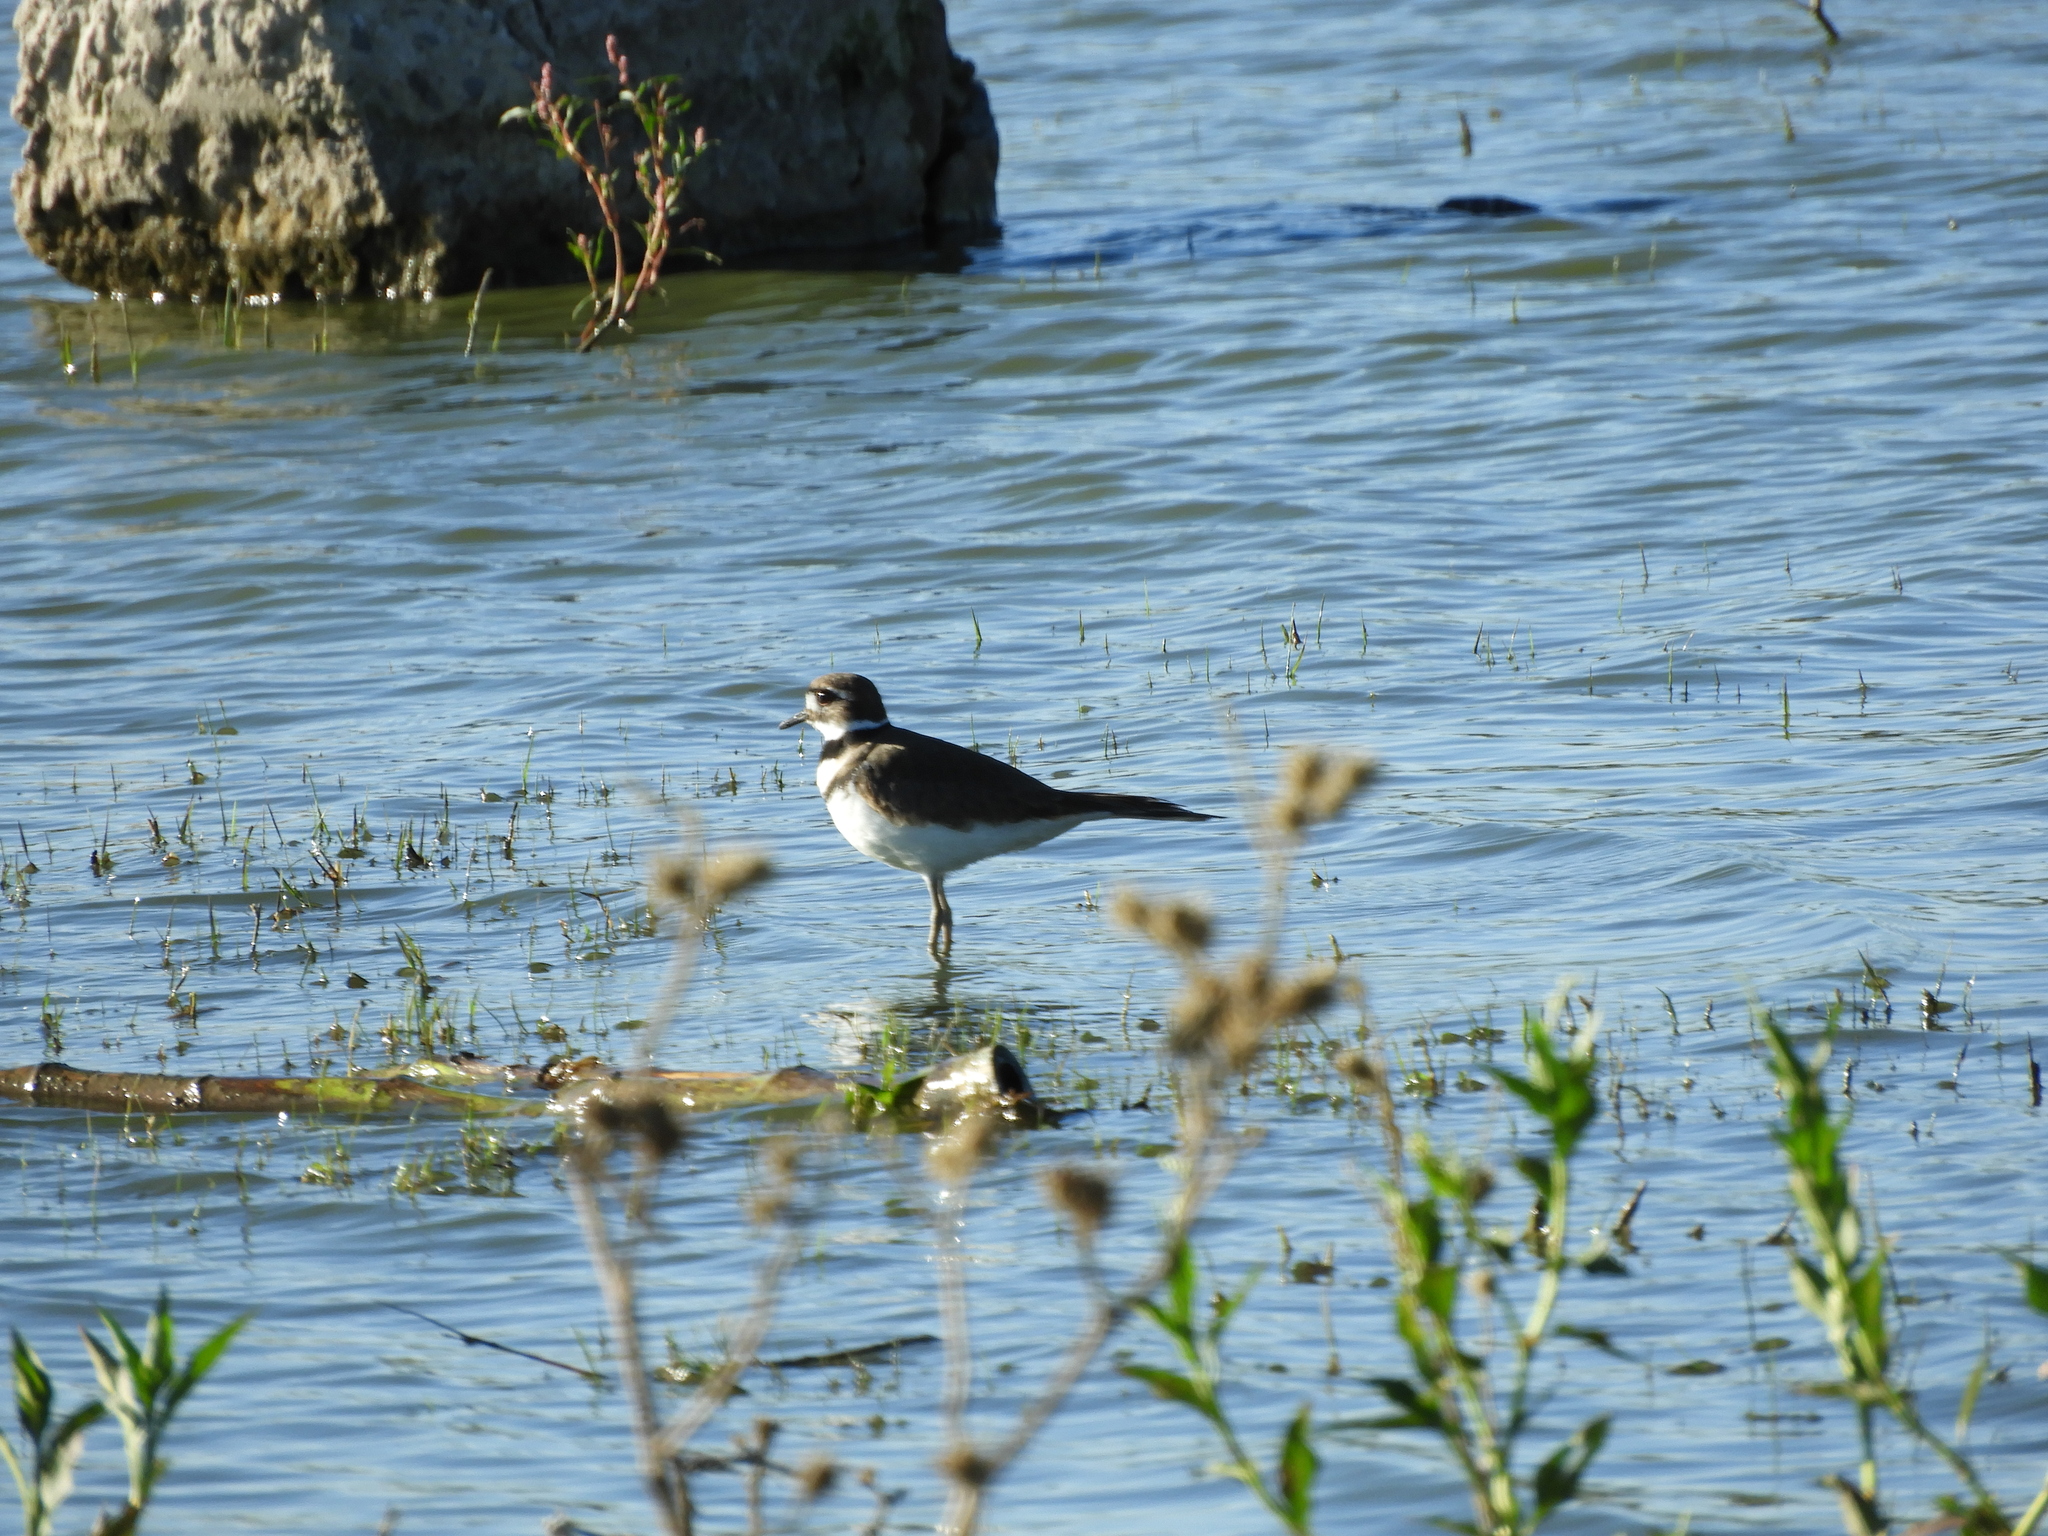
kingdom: Animalia
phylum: Chordata
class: Aves
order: Charadriiformes
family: Charadriidae
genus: Charadrius
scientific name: Charadrius vociferus
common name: Killdeer
